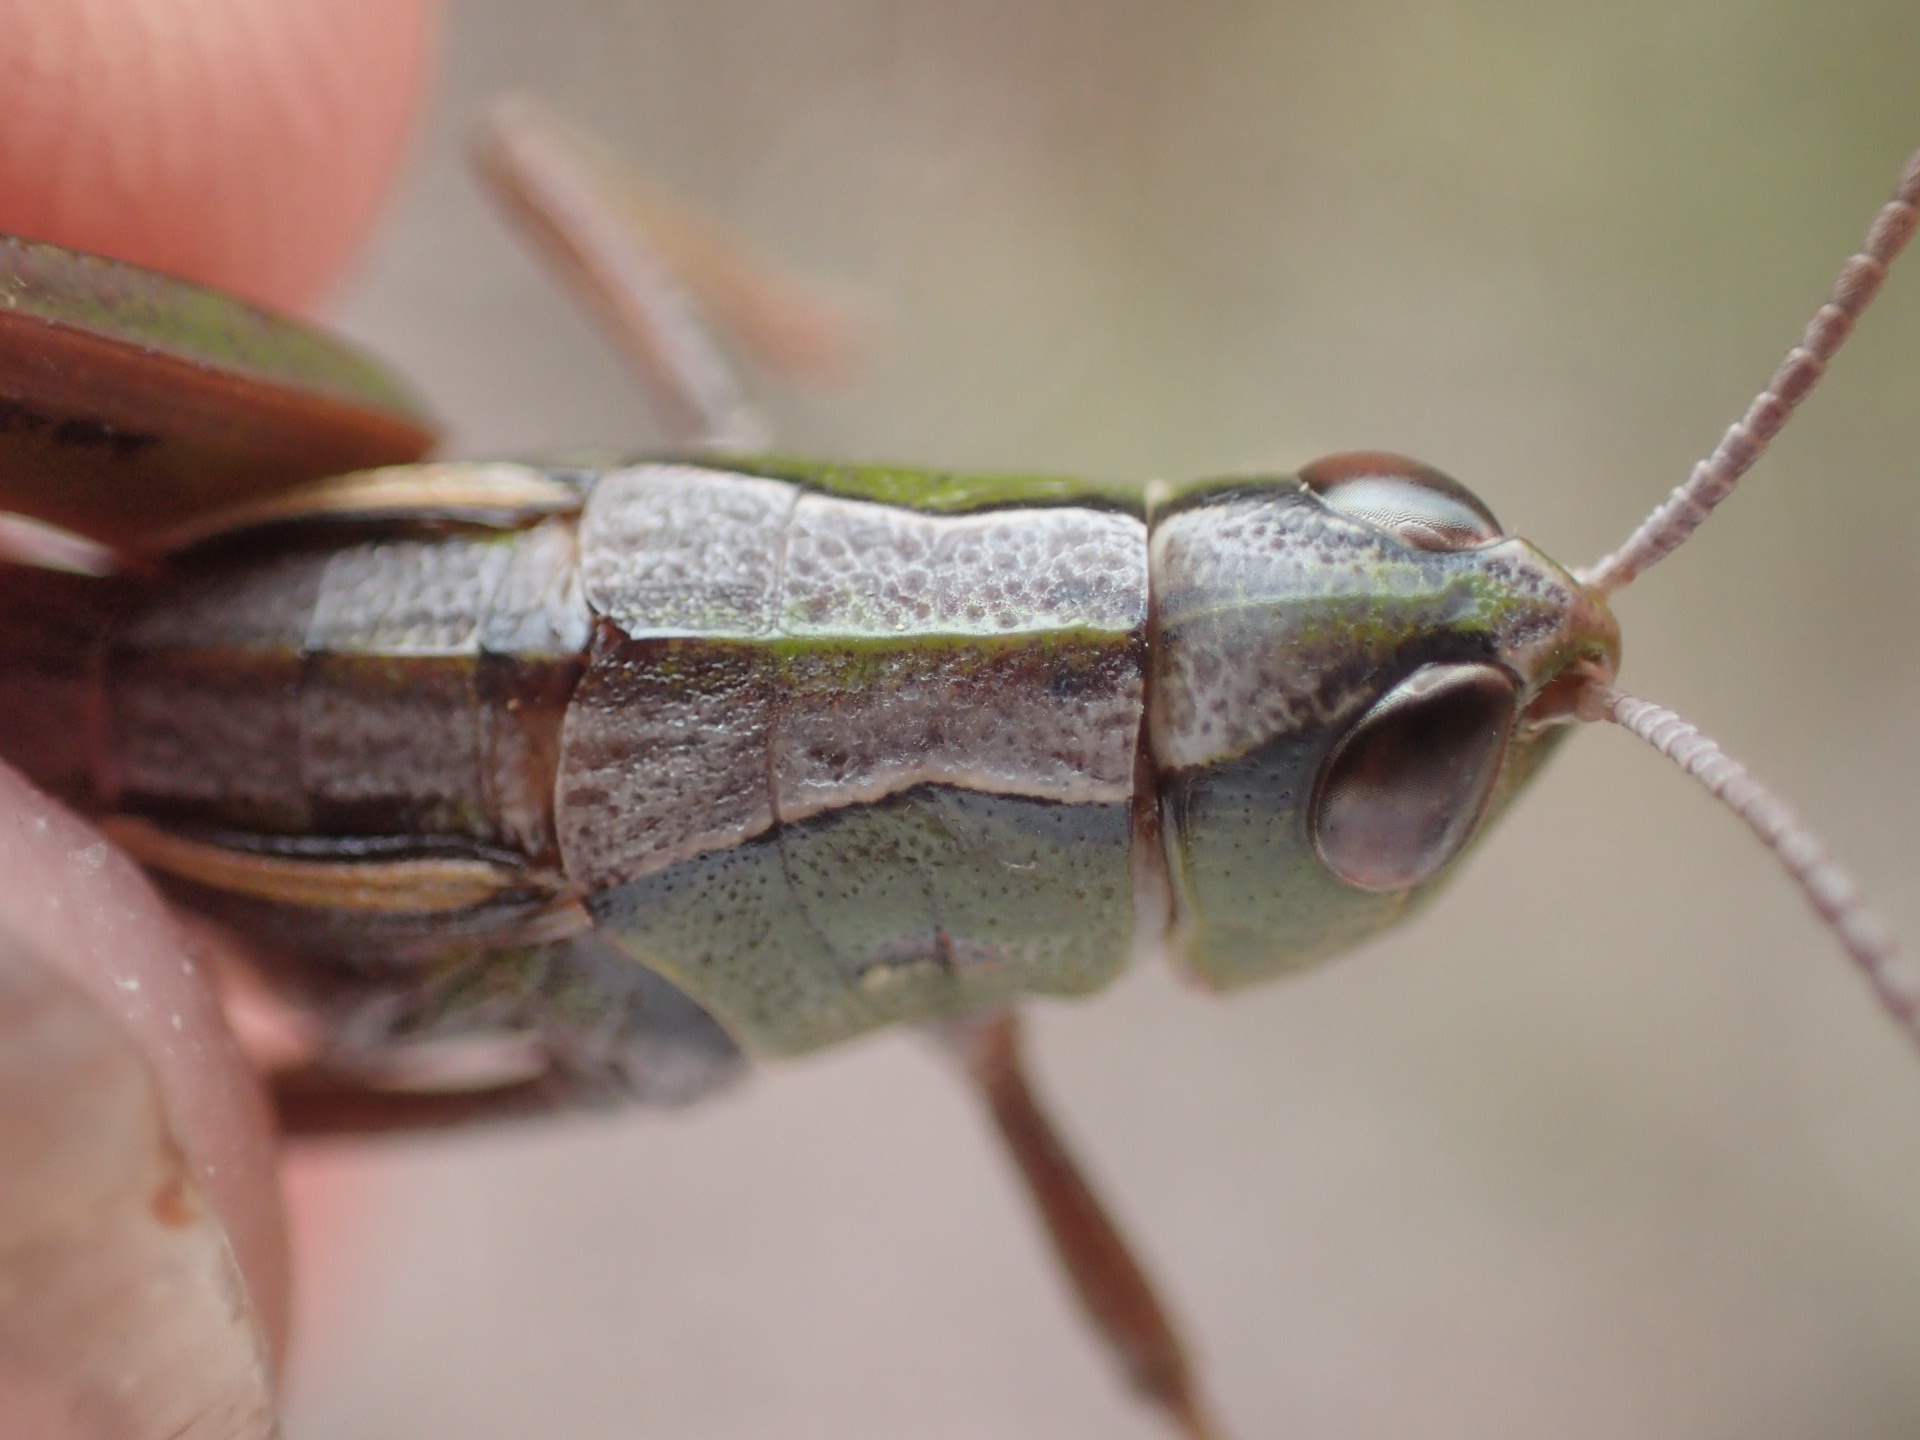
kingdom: Animalia
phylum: Arthropoda
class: Insecta
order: Orthoptera
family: Acrididae
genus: Russalpia
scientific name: Russalpia albertisi
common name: Tassie hopper
